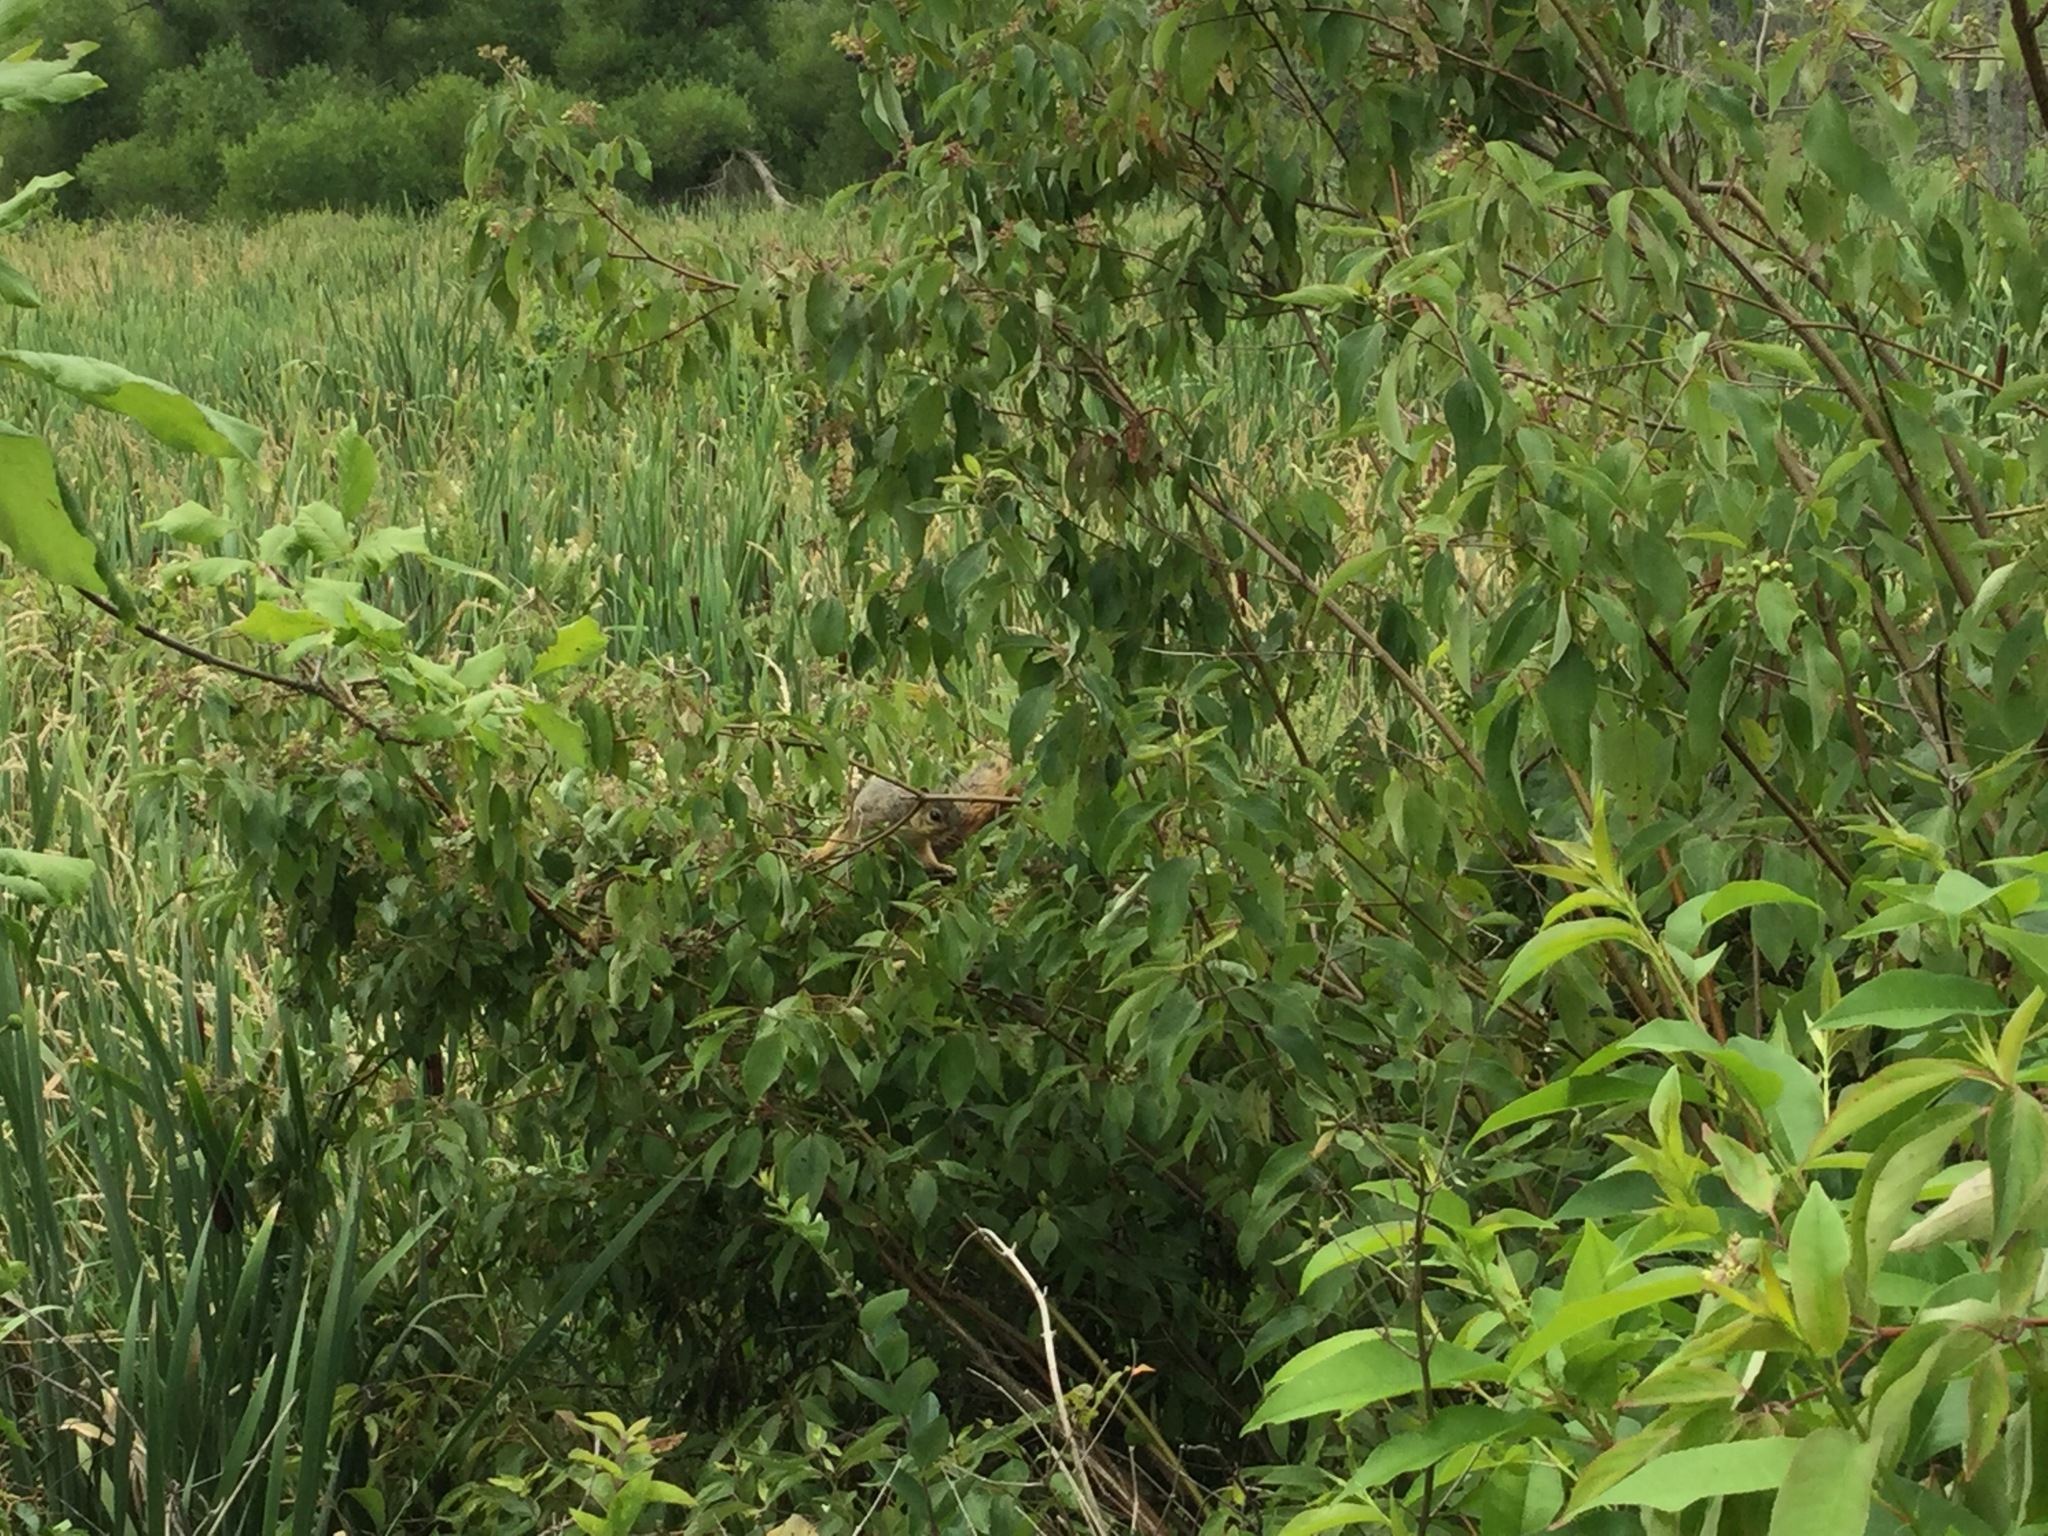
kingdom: Animalia
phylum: Chordata
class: Mammalia
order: Rodentia
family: Sciuridae
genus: Sciurus
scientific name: Sciurus niger
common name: Fox squirrel
